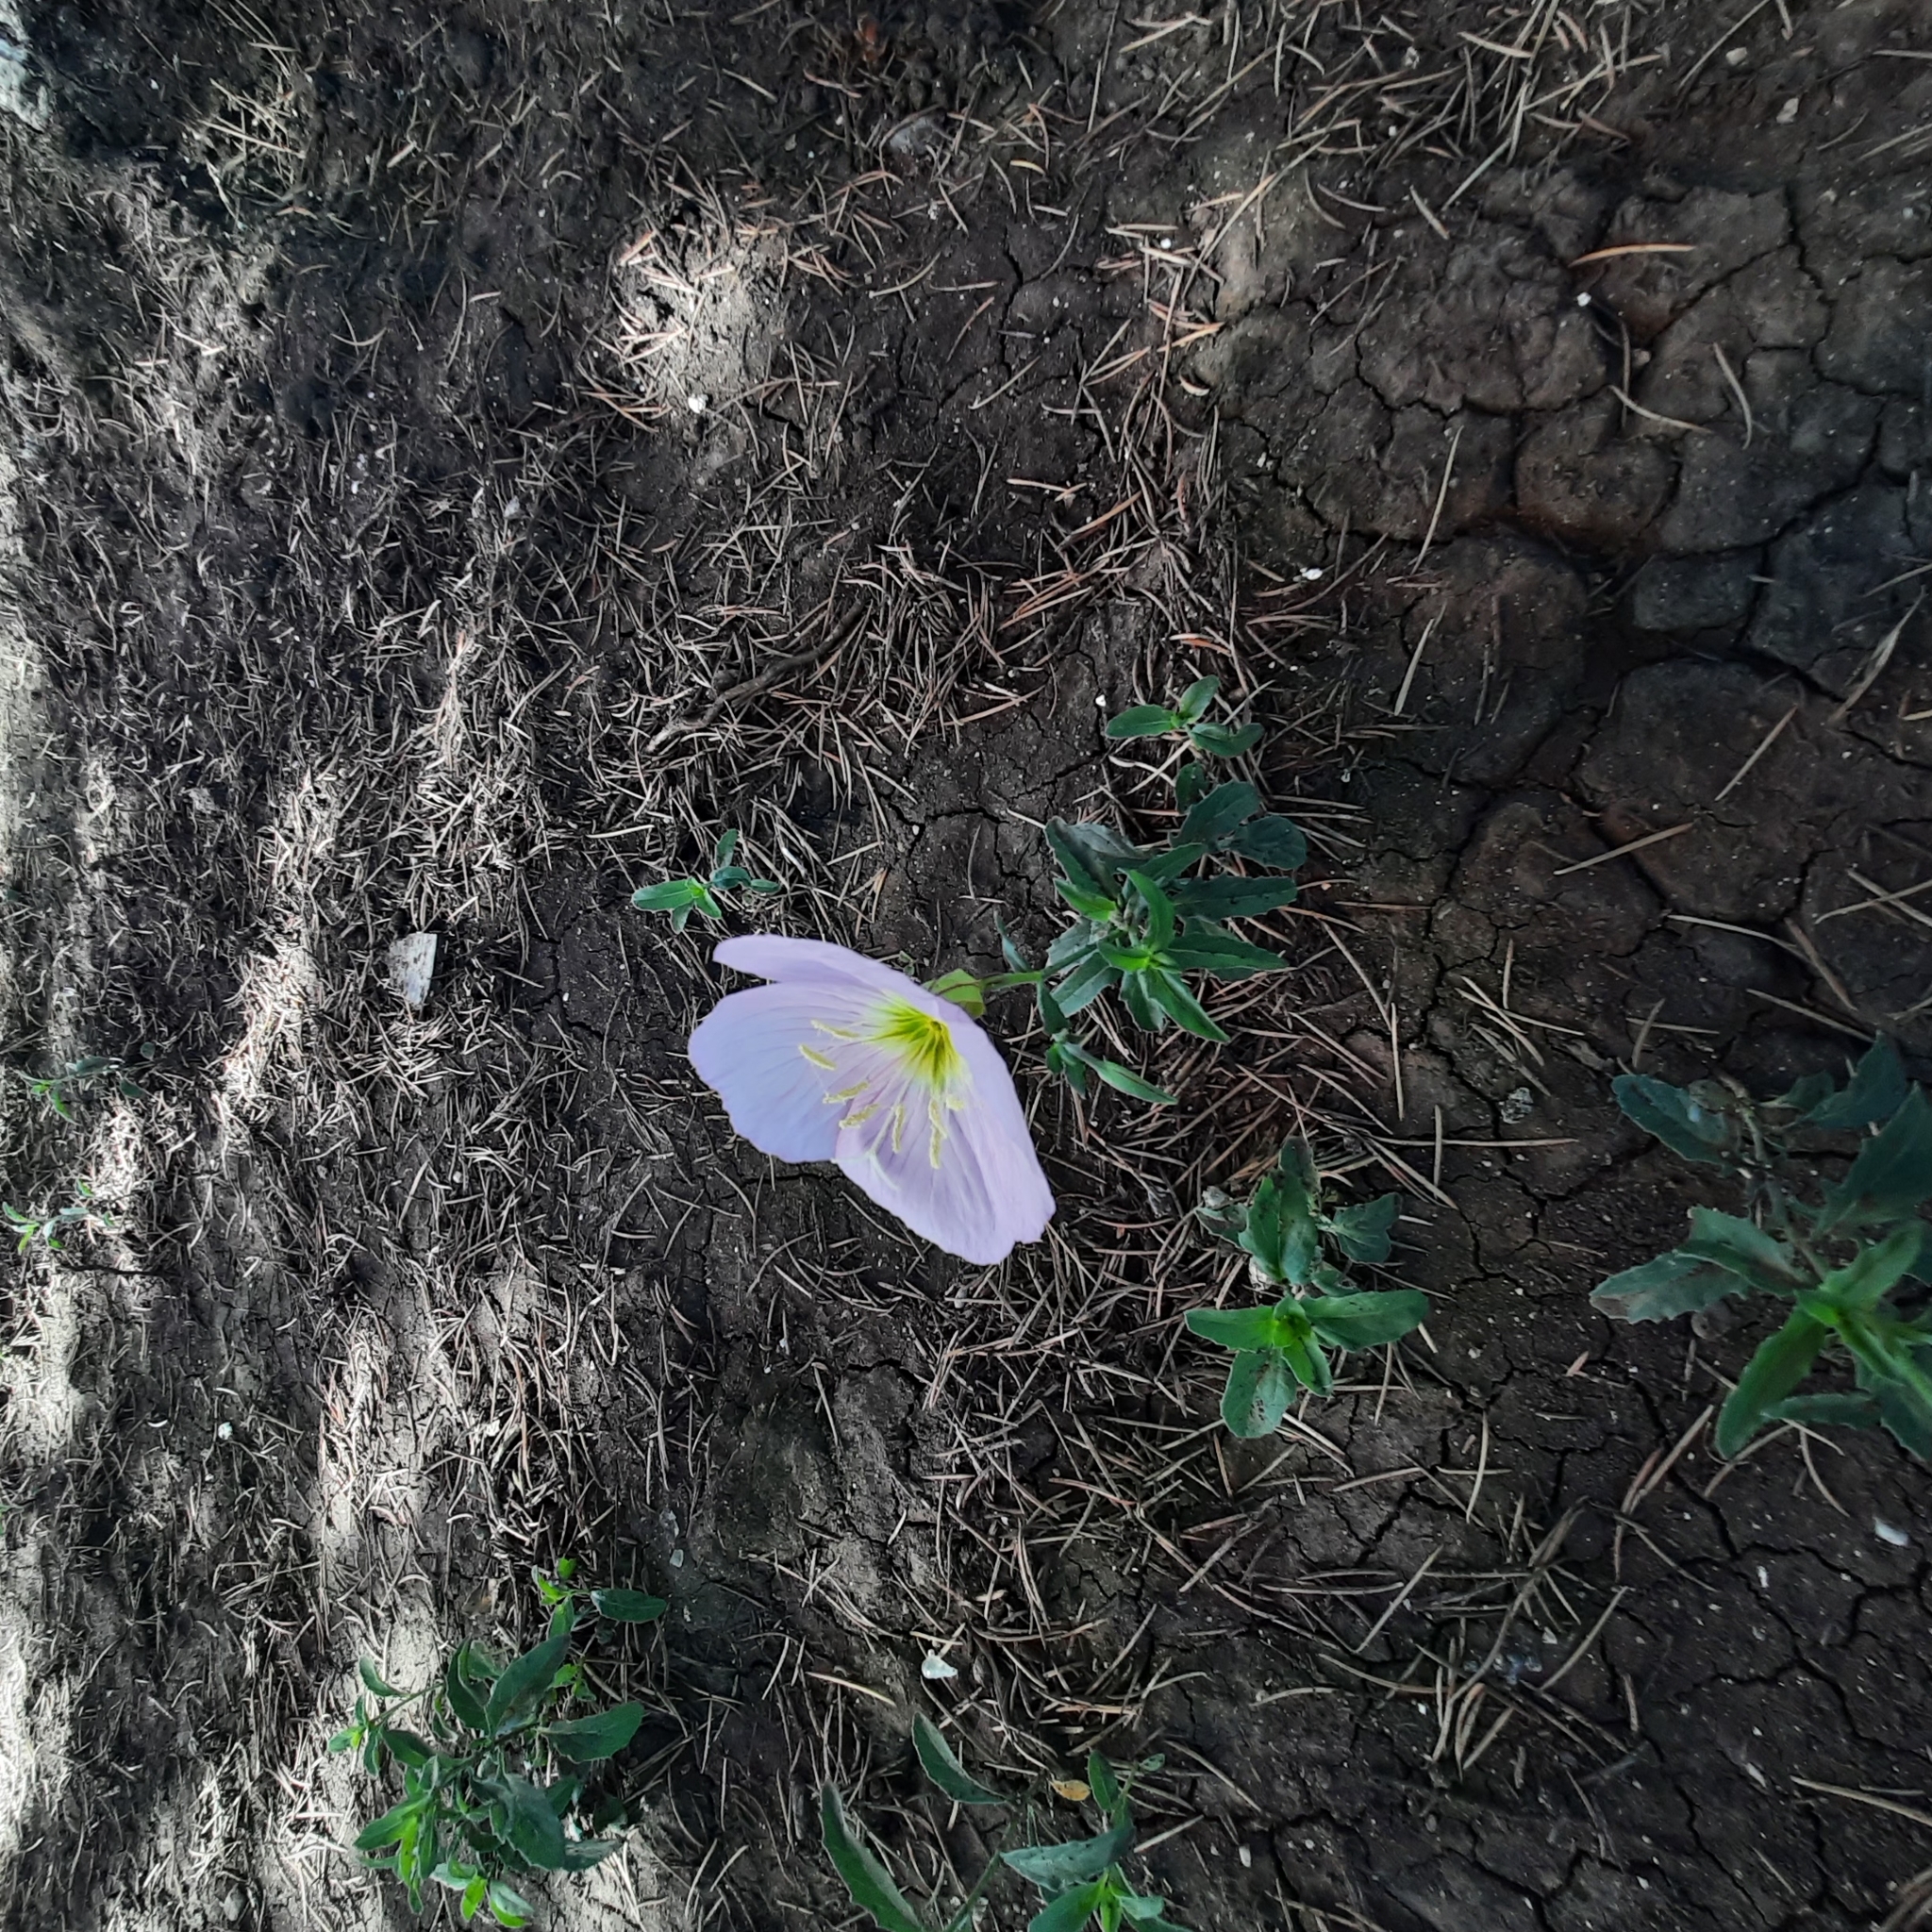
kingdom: Plantae
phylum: Tracheophyta
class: Magnoliopsida
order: Myrtales
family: Onagraceae
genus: Oenothera
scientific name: Oenothera speciosa
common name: White evening-primrose
